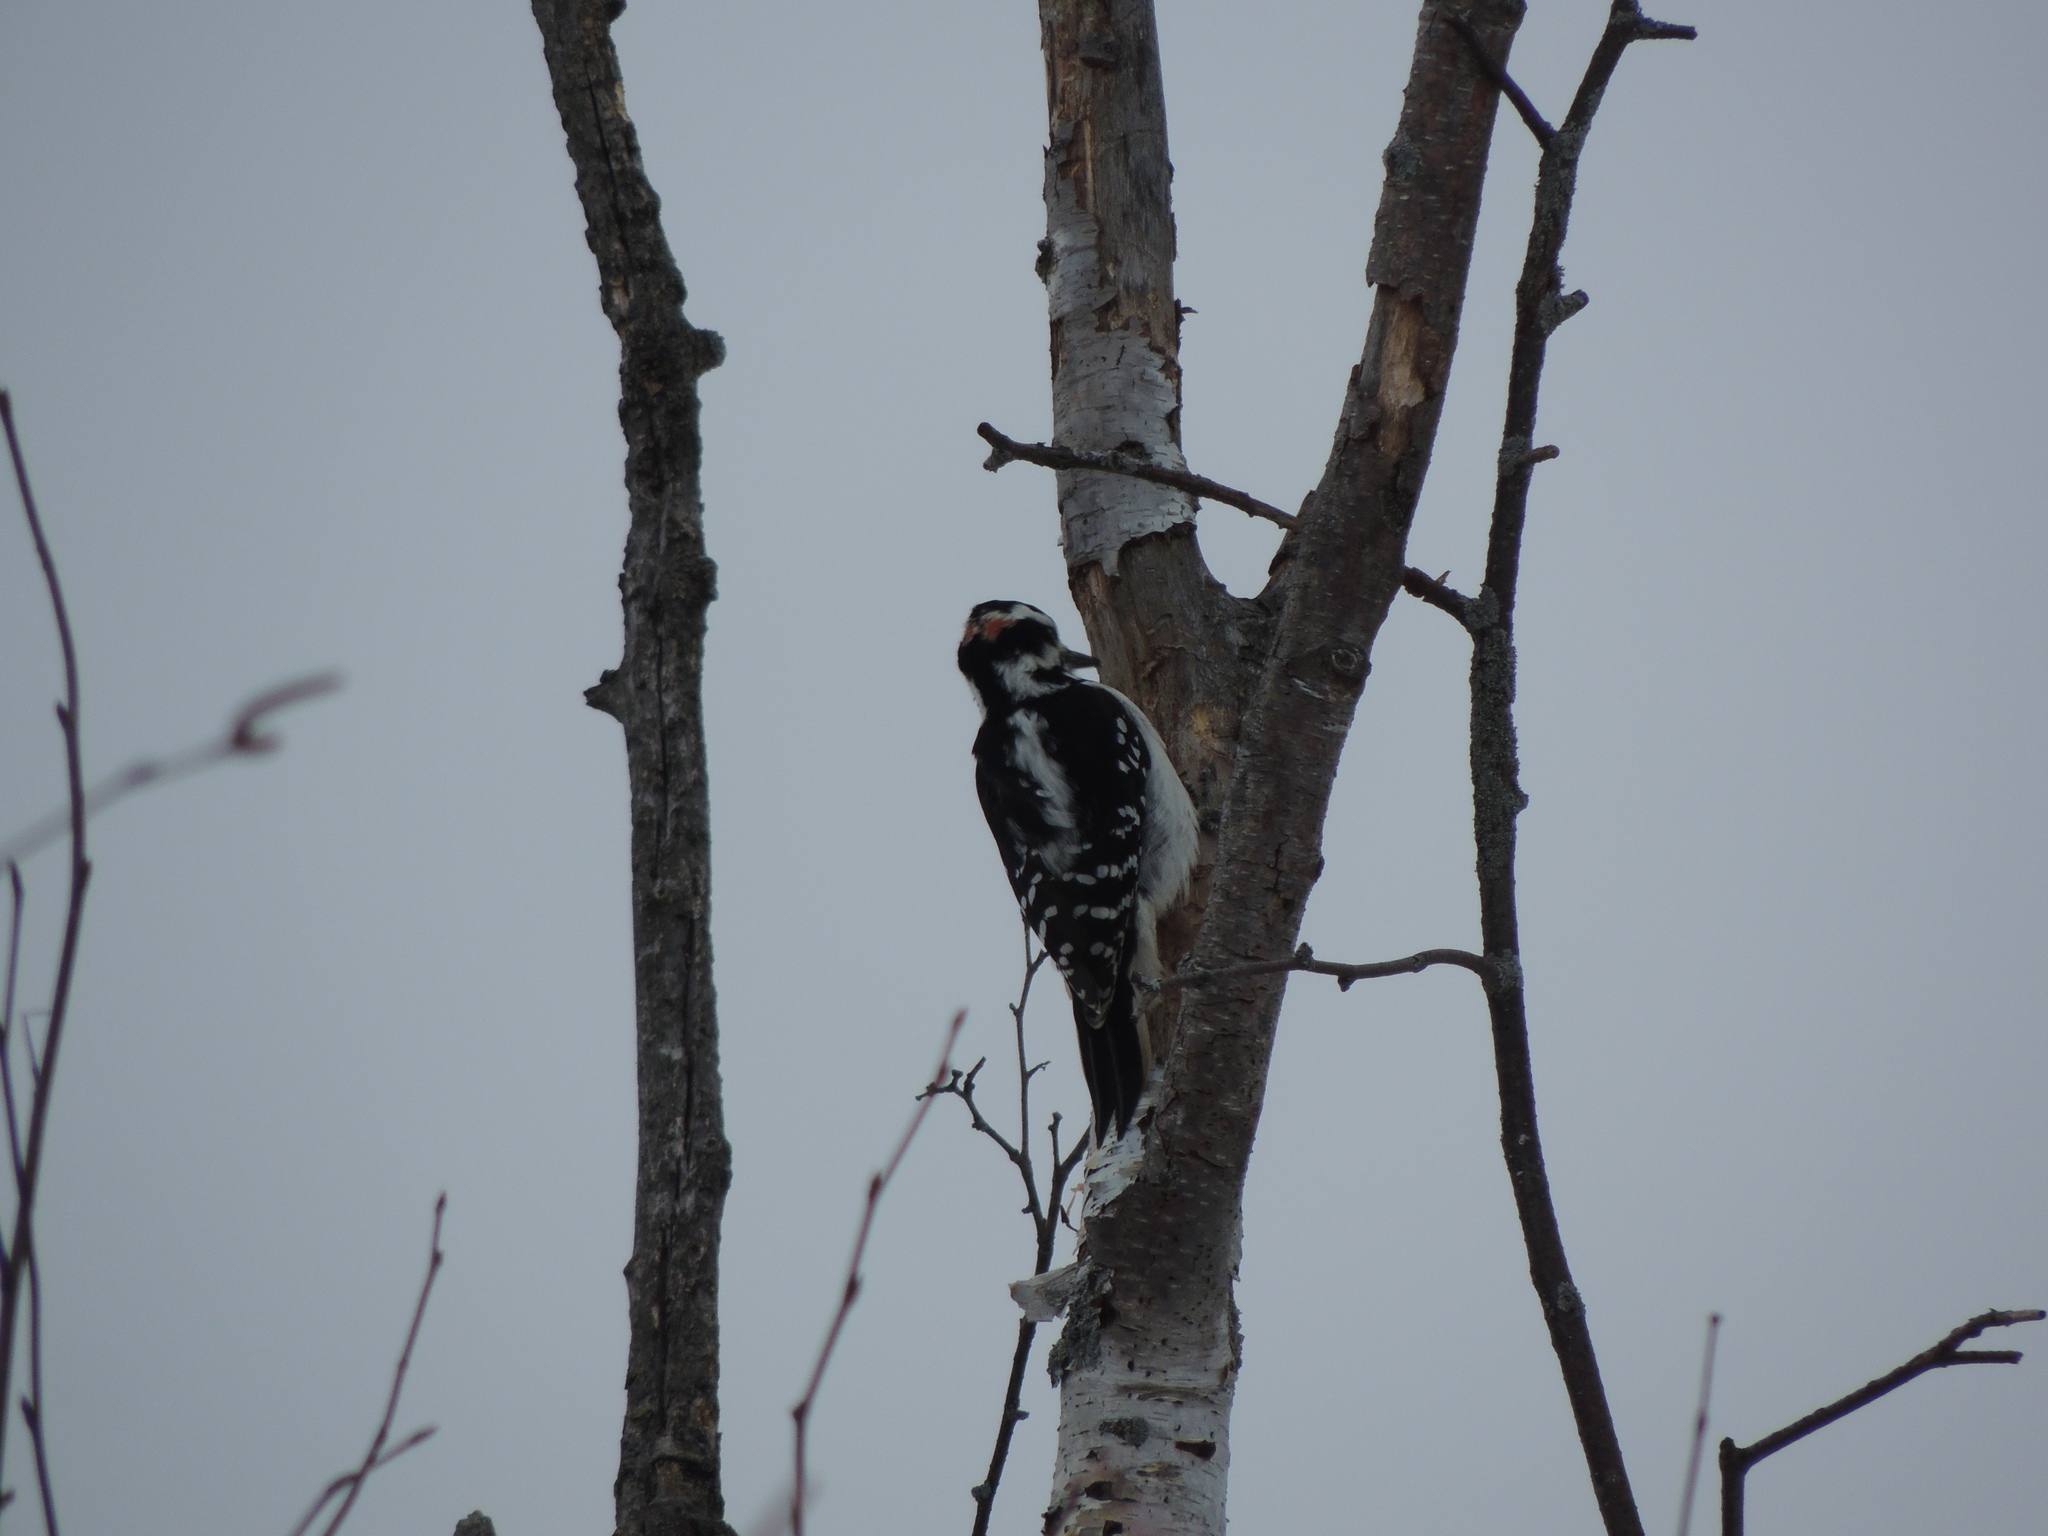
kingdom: Animalia
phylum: Chordata
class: Aves
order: Piciformes
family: Picidae
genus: Leuconotopicus
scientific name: Leuconotopicus villosus
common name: Hairy woodpecker
